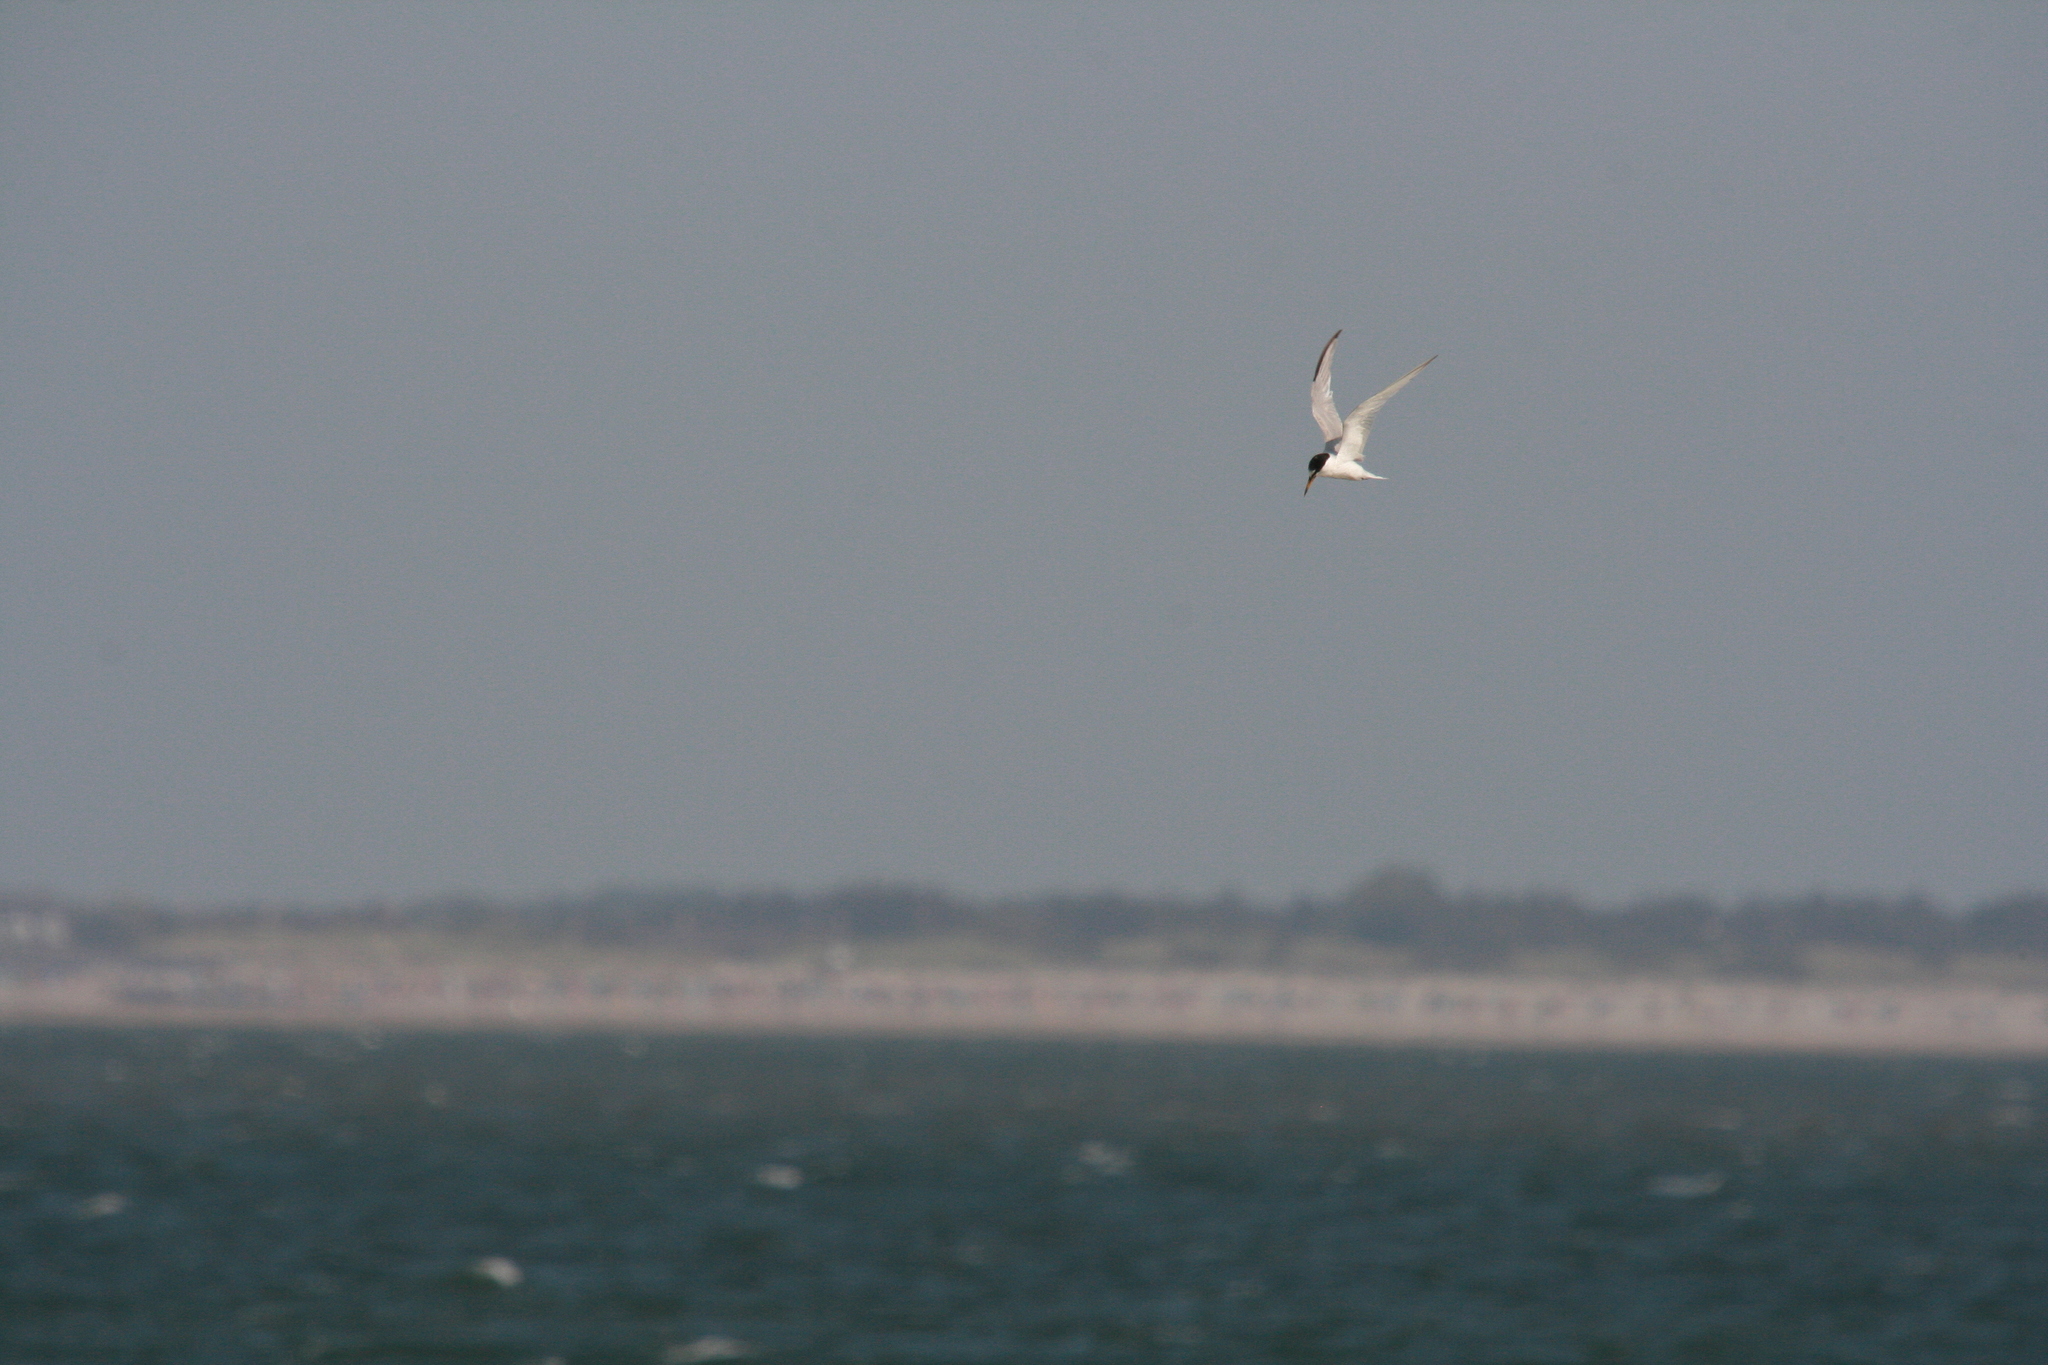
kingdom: Animalia
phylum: Chordata
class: Aves
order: Charadriiformes
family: Laridae
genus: Sternula
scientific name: Sternula albifrons
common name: Little tern
